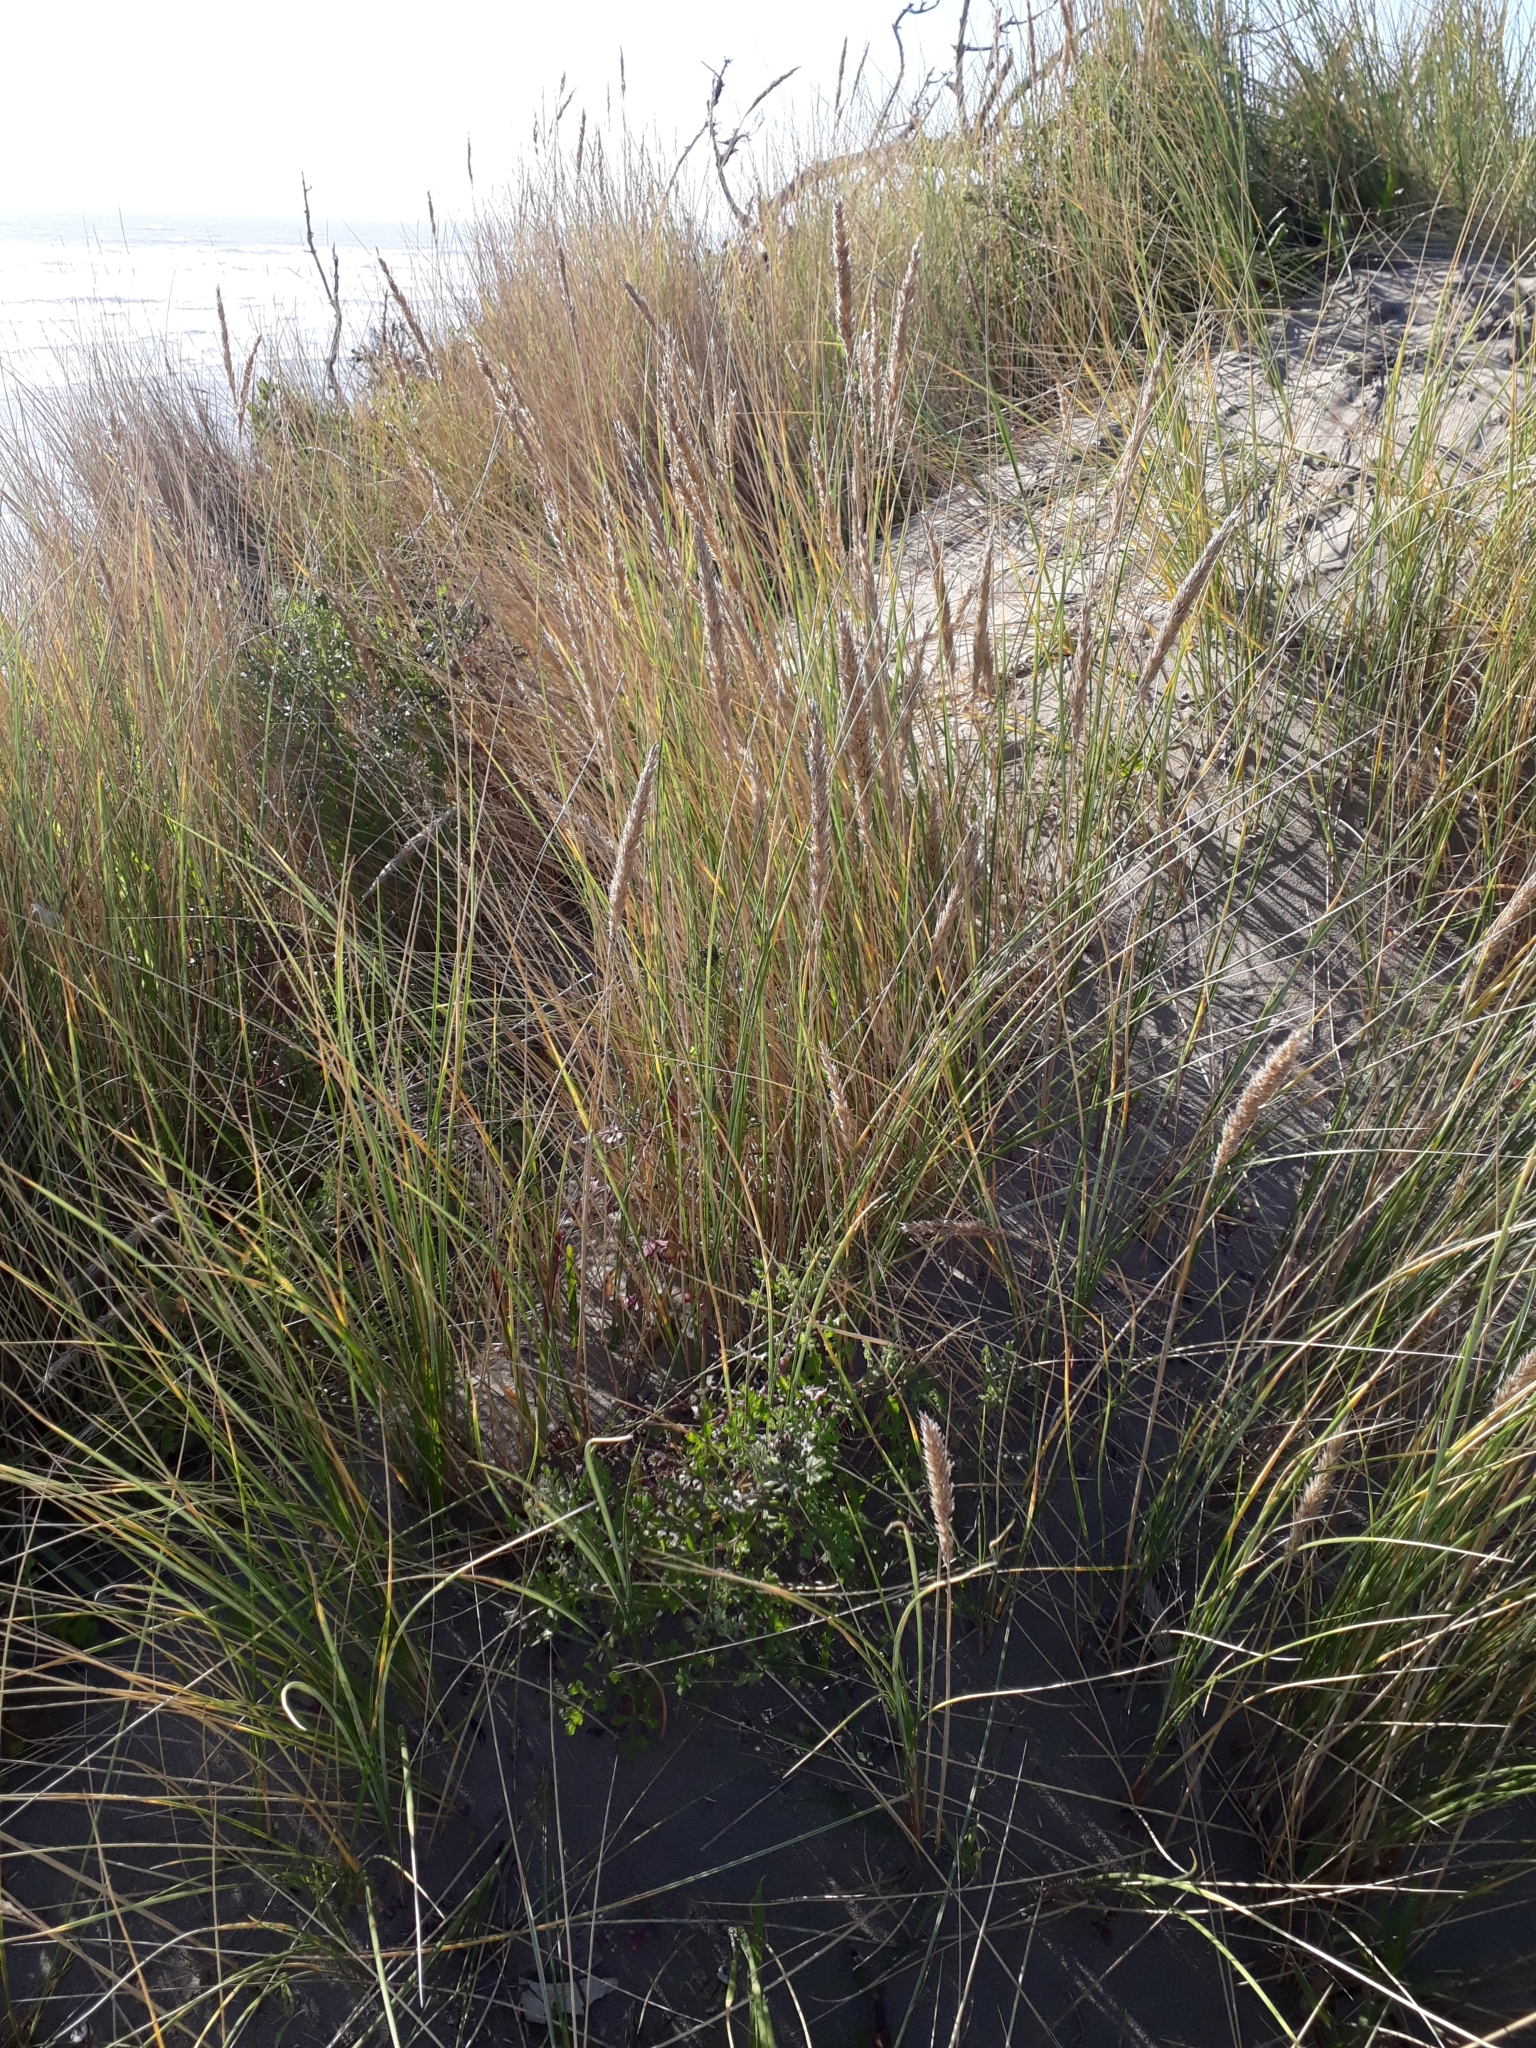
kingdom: Plantae
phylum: Tracheophyta
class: Liliopsida
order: Poales
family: Poaceae
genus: Calamagrostis
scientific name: Calamagrostis arenaria
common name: European beachgrass
